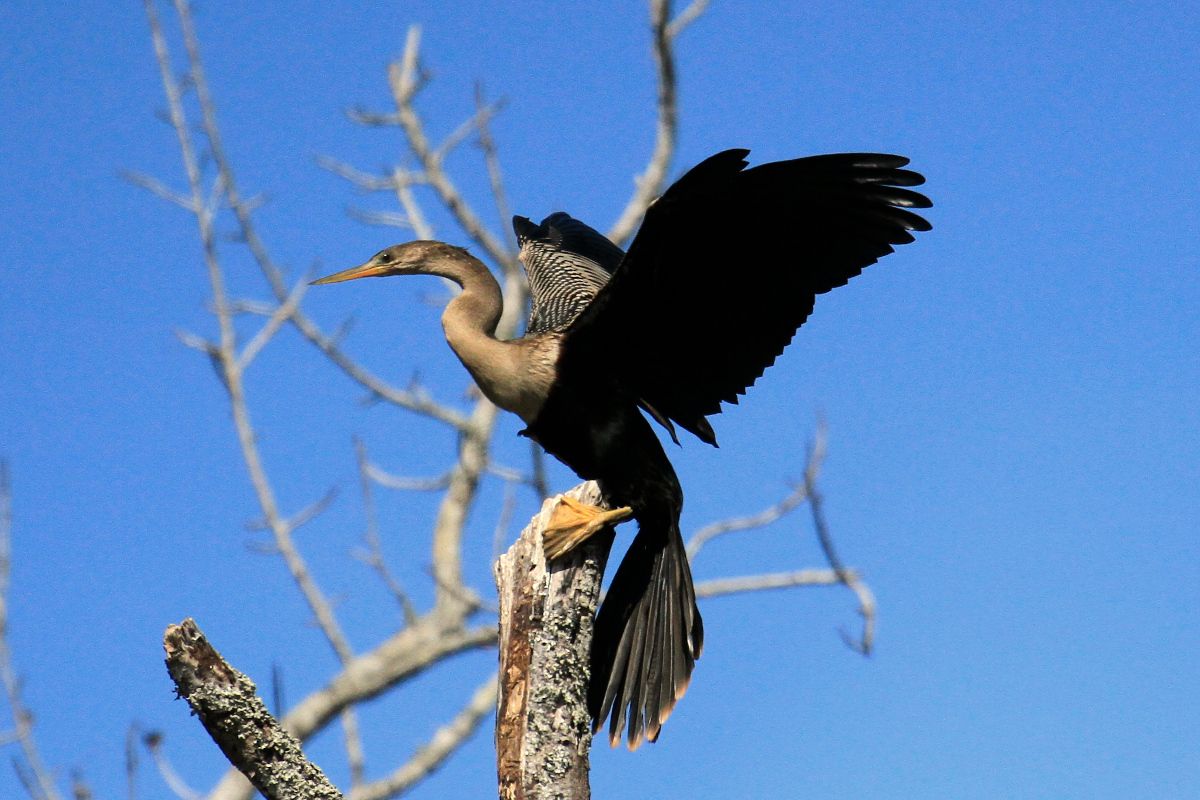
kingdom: Animalia
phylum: Chordata
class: Aves
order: Suliformes
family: Anhingidae
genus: Anhinga
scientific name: Anhinga anhinga
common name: Anhinga
